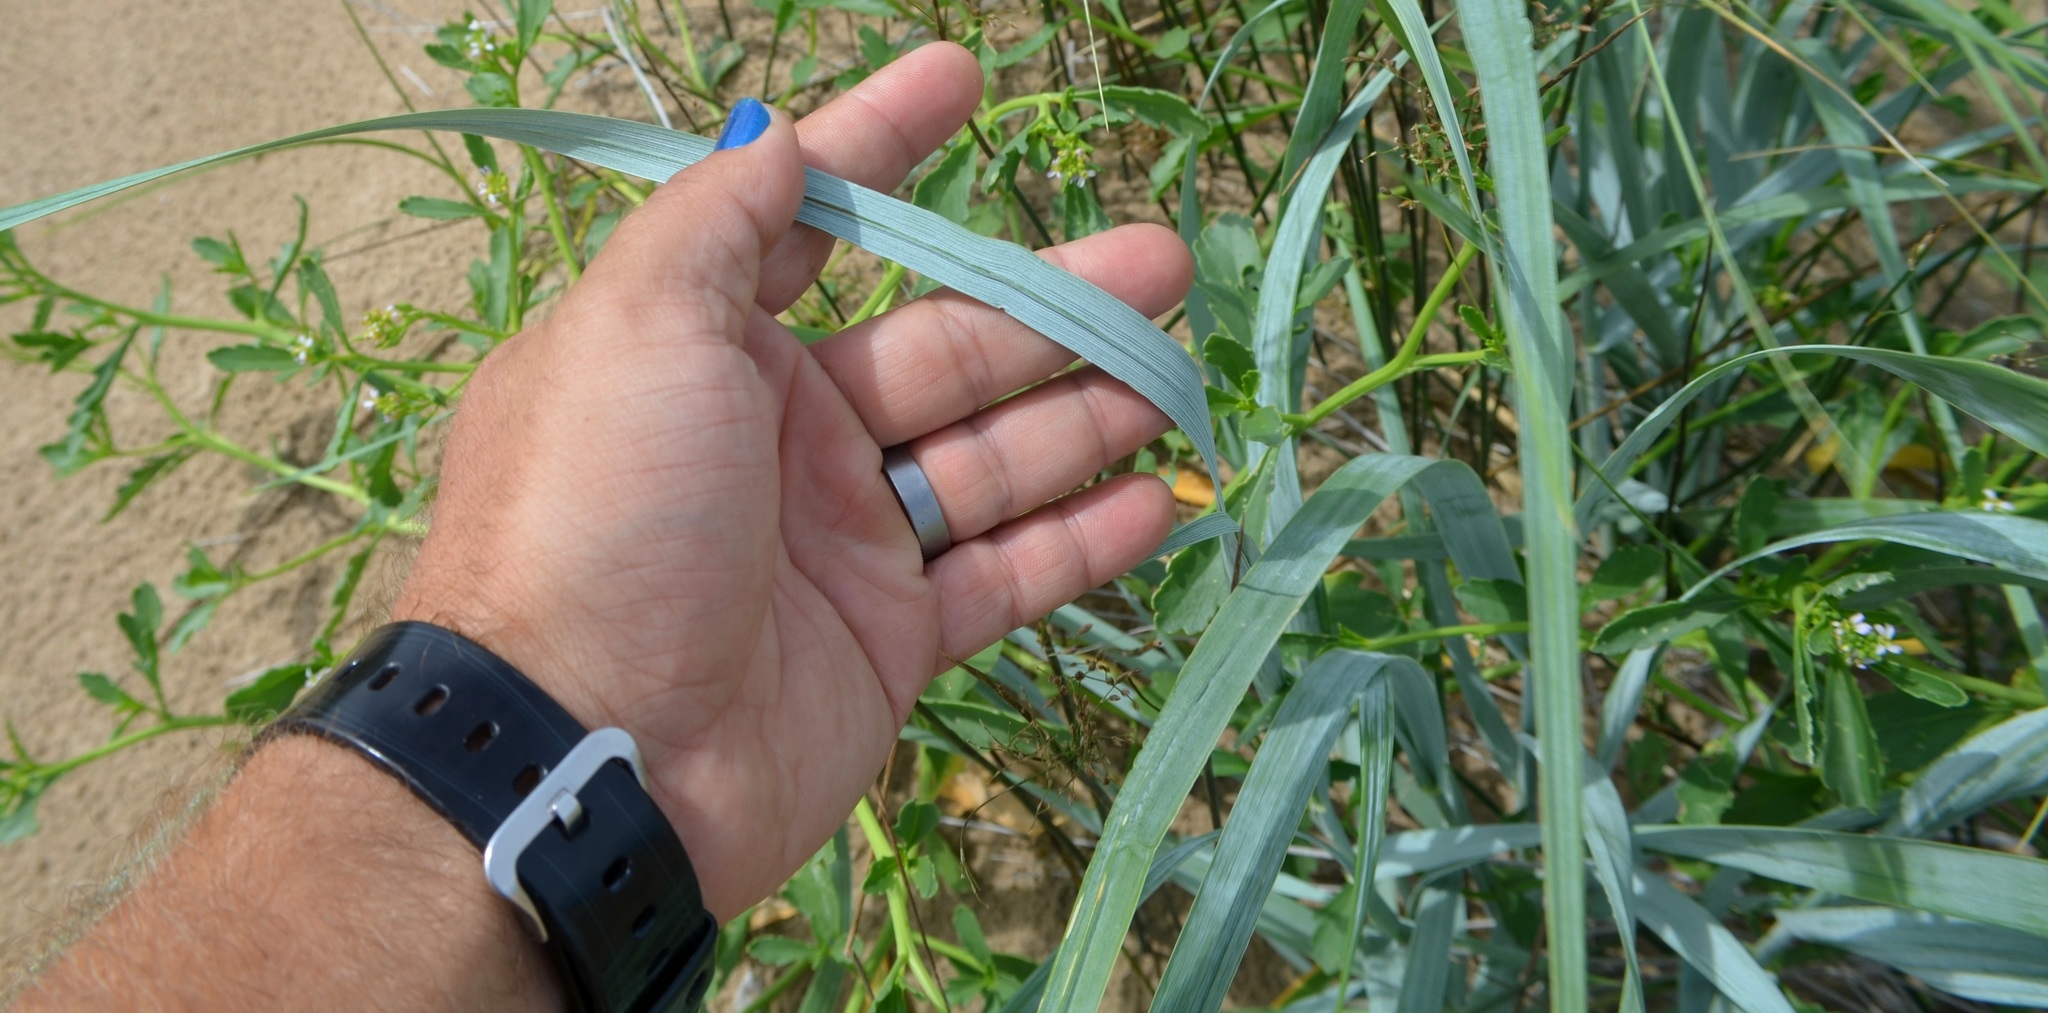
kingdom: Plantae
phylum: Tracheophyta
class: Liliopsida
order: Poales
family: Poaceae
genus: Leymus
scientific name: Leymus arenarius
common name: Lyme-grass
